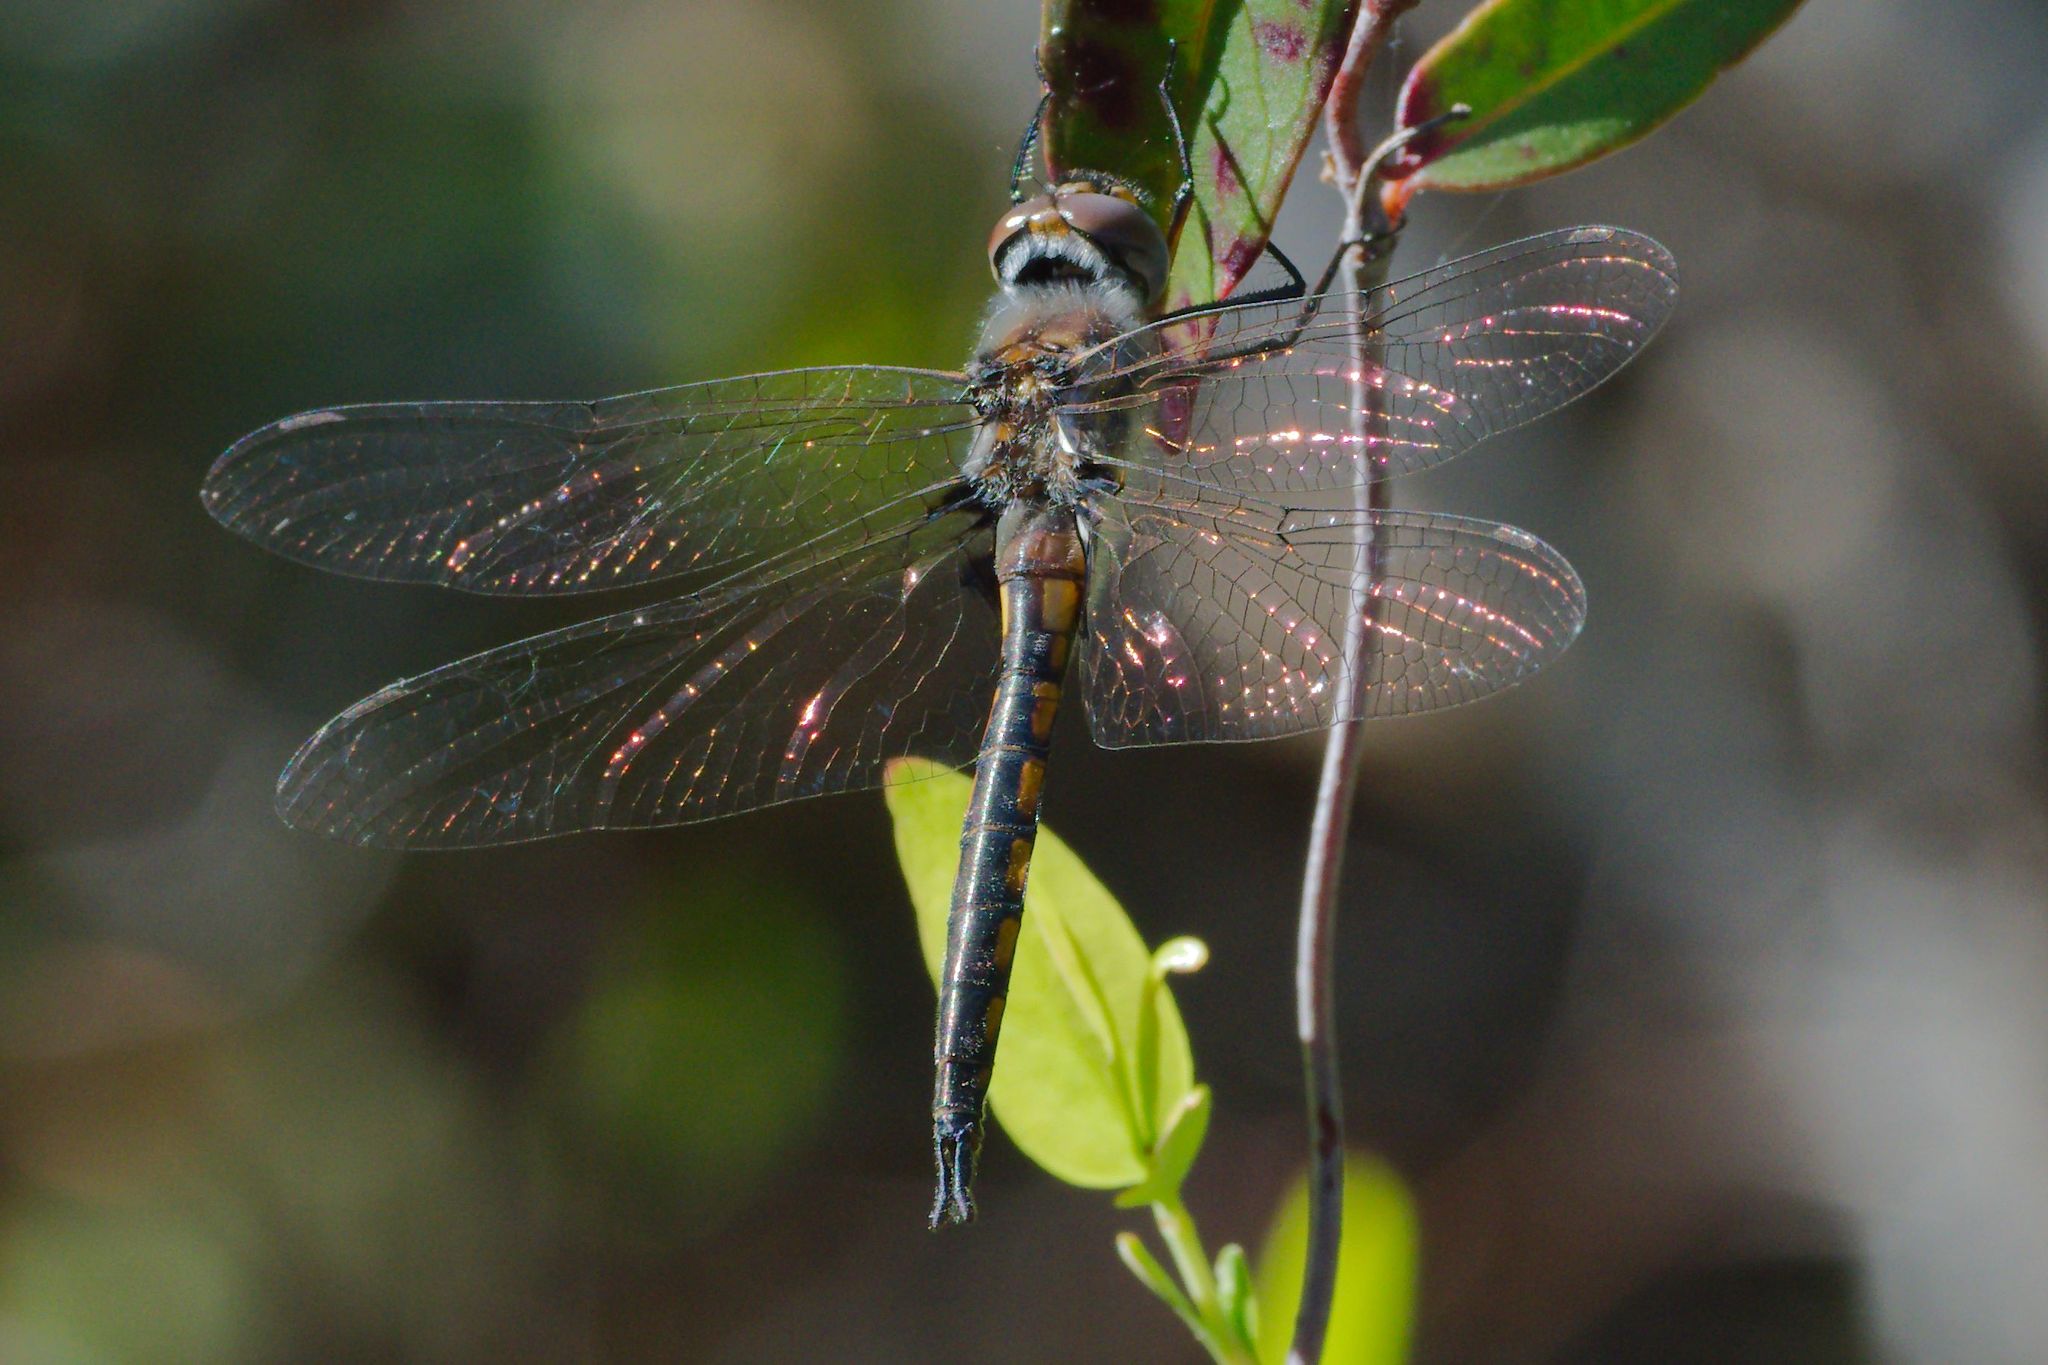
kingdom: Animalia
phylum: Arthropoda
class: Insecta
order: Odonata
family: Corduliidae
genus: Epitheca
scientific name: Epitheca cynosura
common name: Common baskettail
